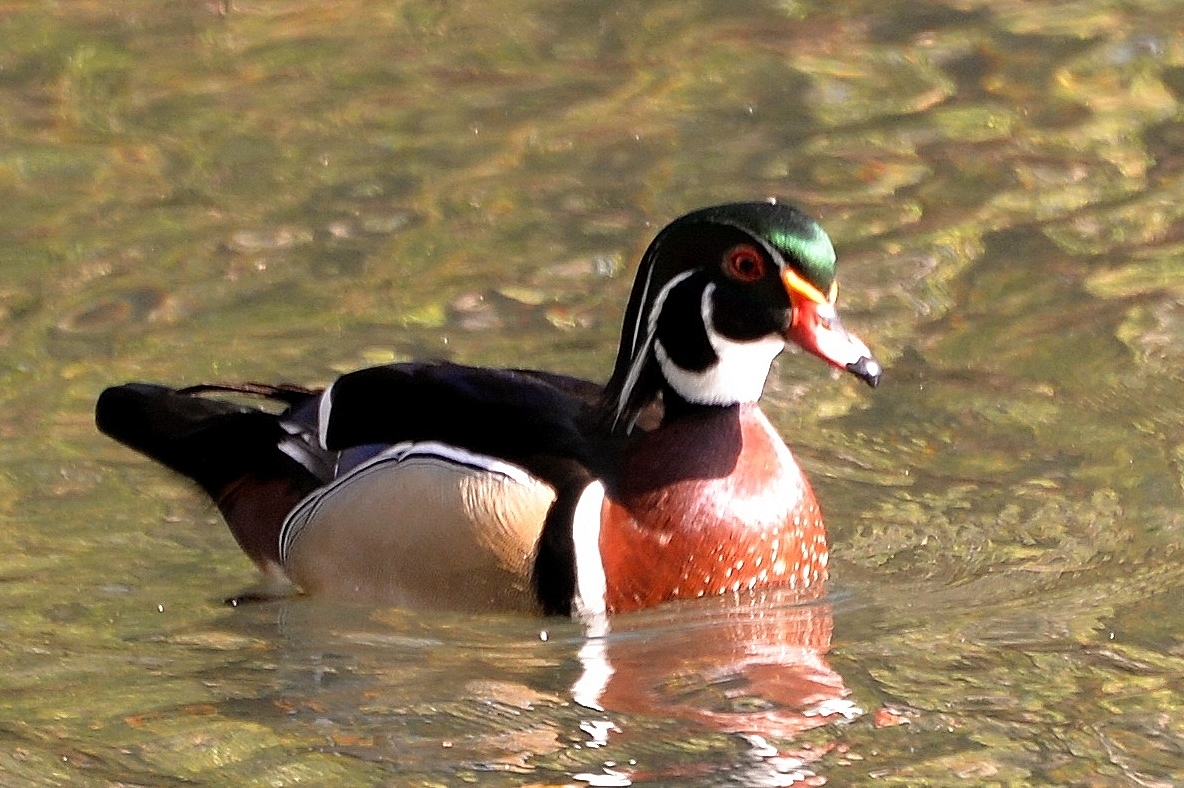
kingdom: Animalia
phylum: Chordata
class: Aves
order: Anseriformes
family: Anatidae
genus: Aix
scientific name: Aix sponsa
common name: Wood duck
